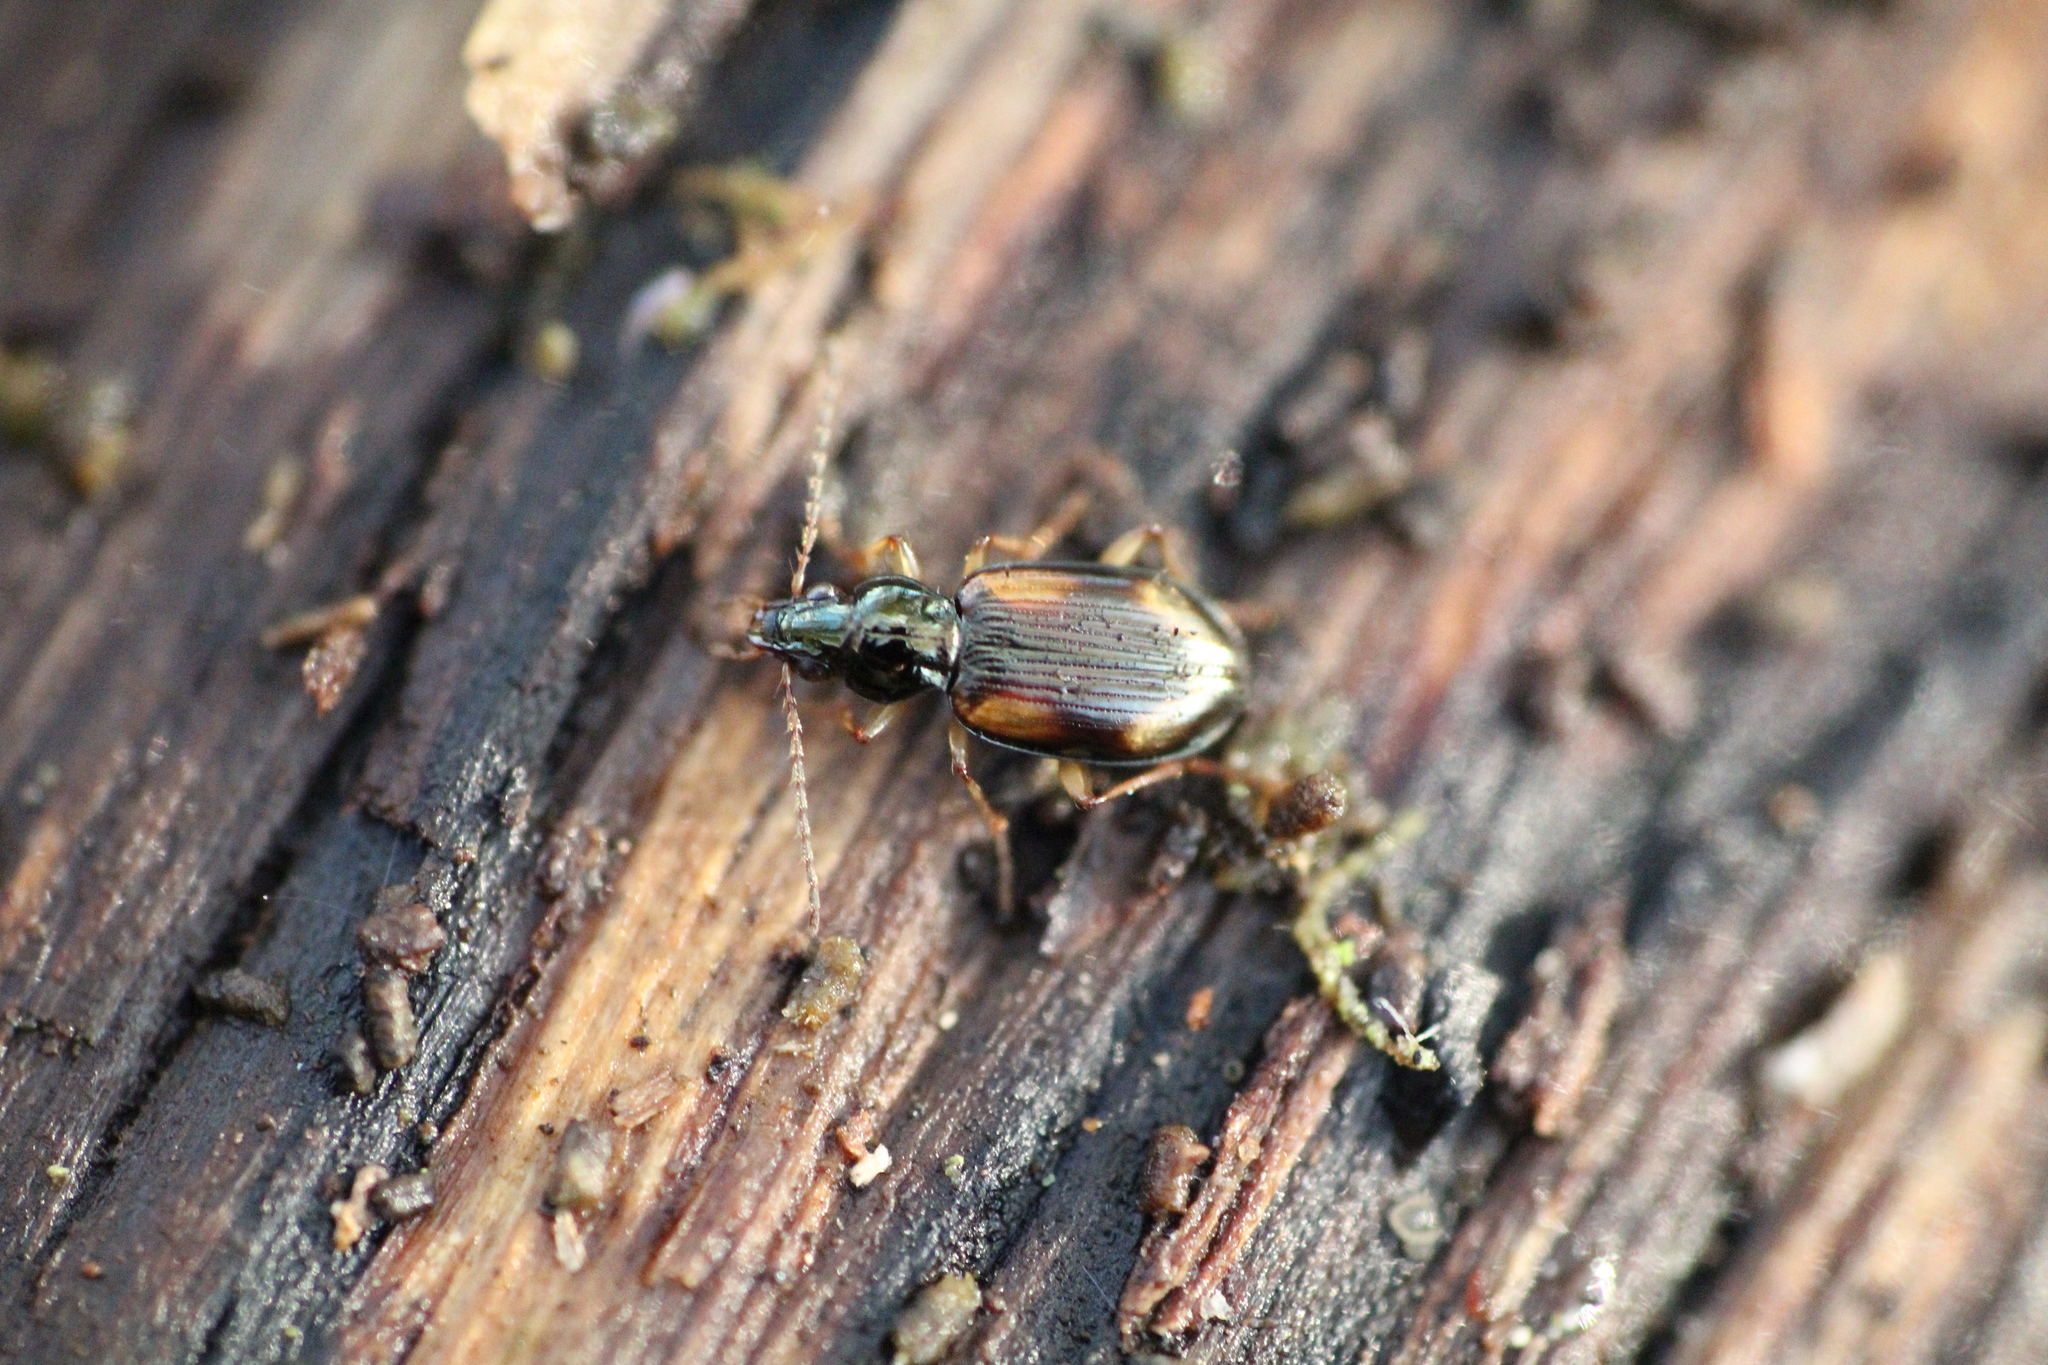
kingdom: Animalia
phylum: Arthropoda
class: Insecta
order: Coleoptera
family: Carabidae
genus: Bembidion
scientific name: Bembidion tetracolum
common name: Seine riverbank ground beetle
